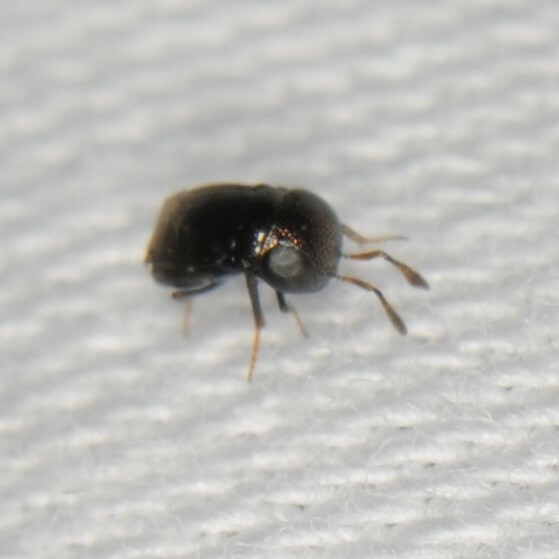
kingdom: Animalia
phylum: Arthropoda
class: Insecta
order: Hymenoptera
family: Encyrtidae
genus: Aenasius
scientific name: Aenasius
